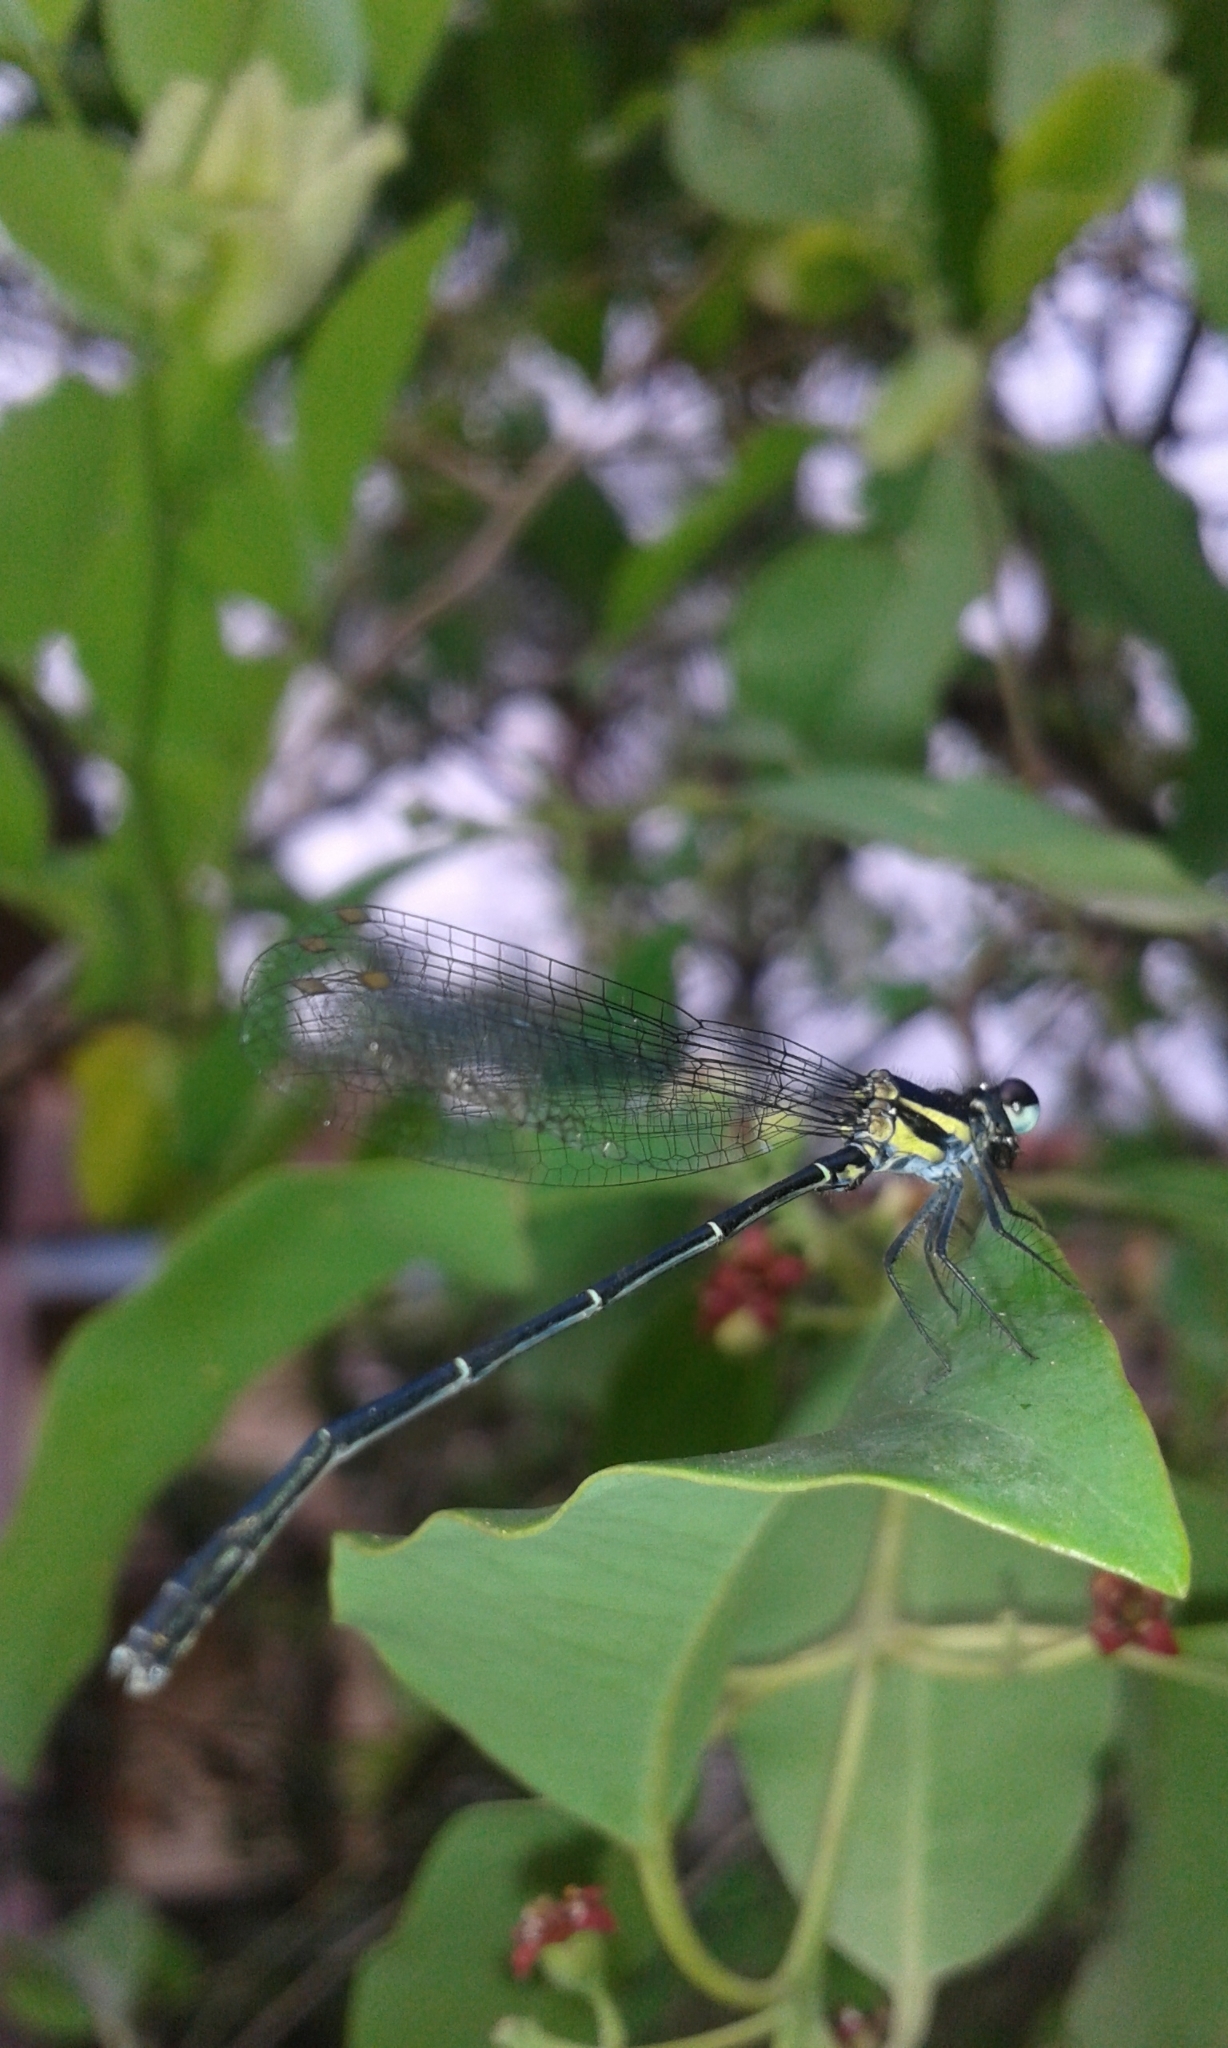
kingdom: Animalia
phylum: Arthropoda
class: Insecta
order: Odonata
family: Platycnemididae
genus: Onychargia
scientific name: Onychargia atrocyana
